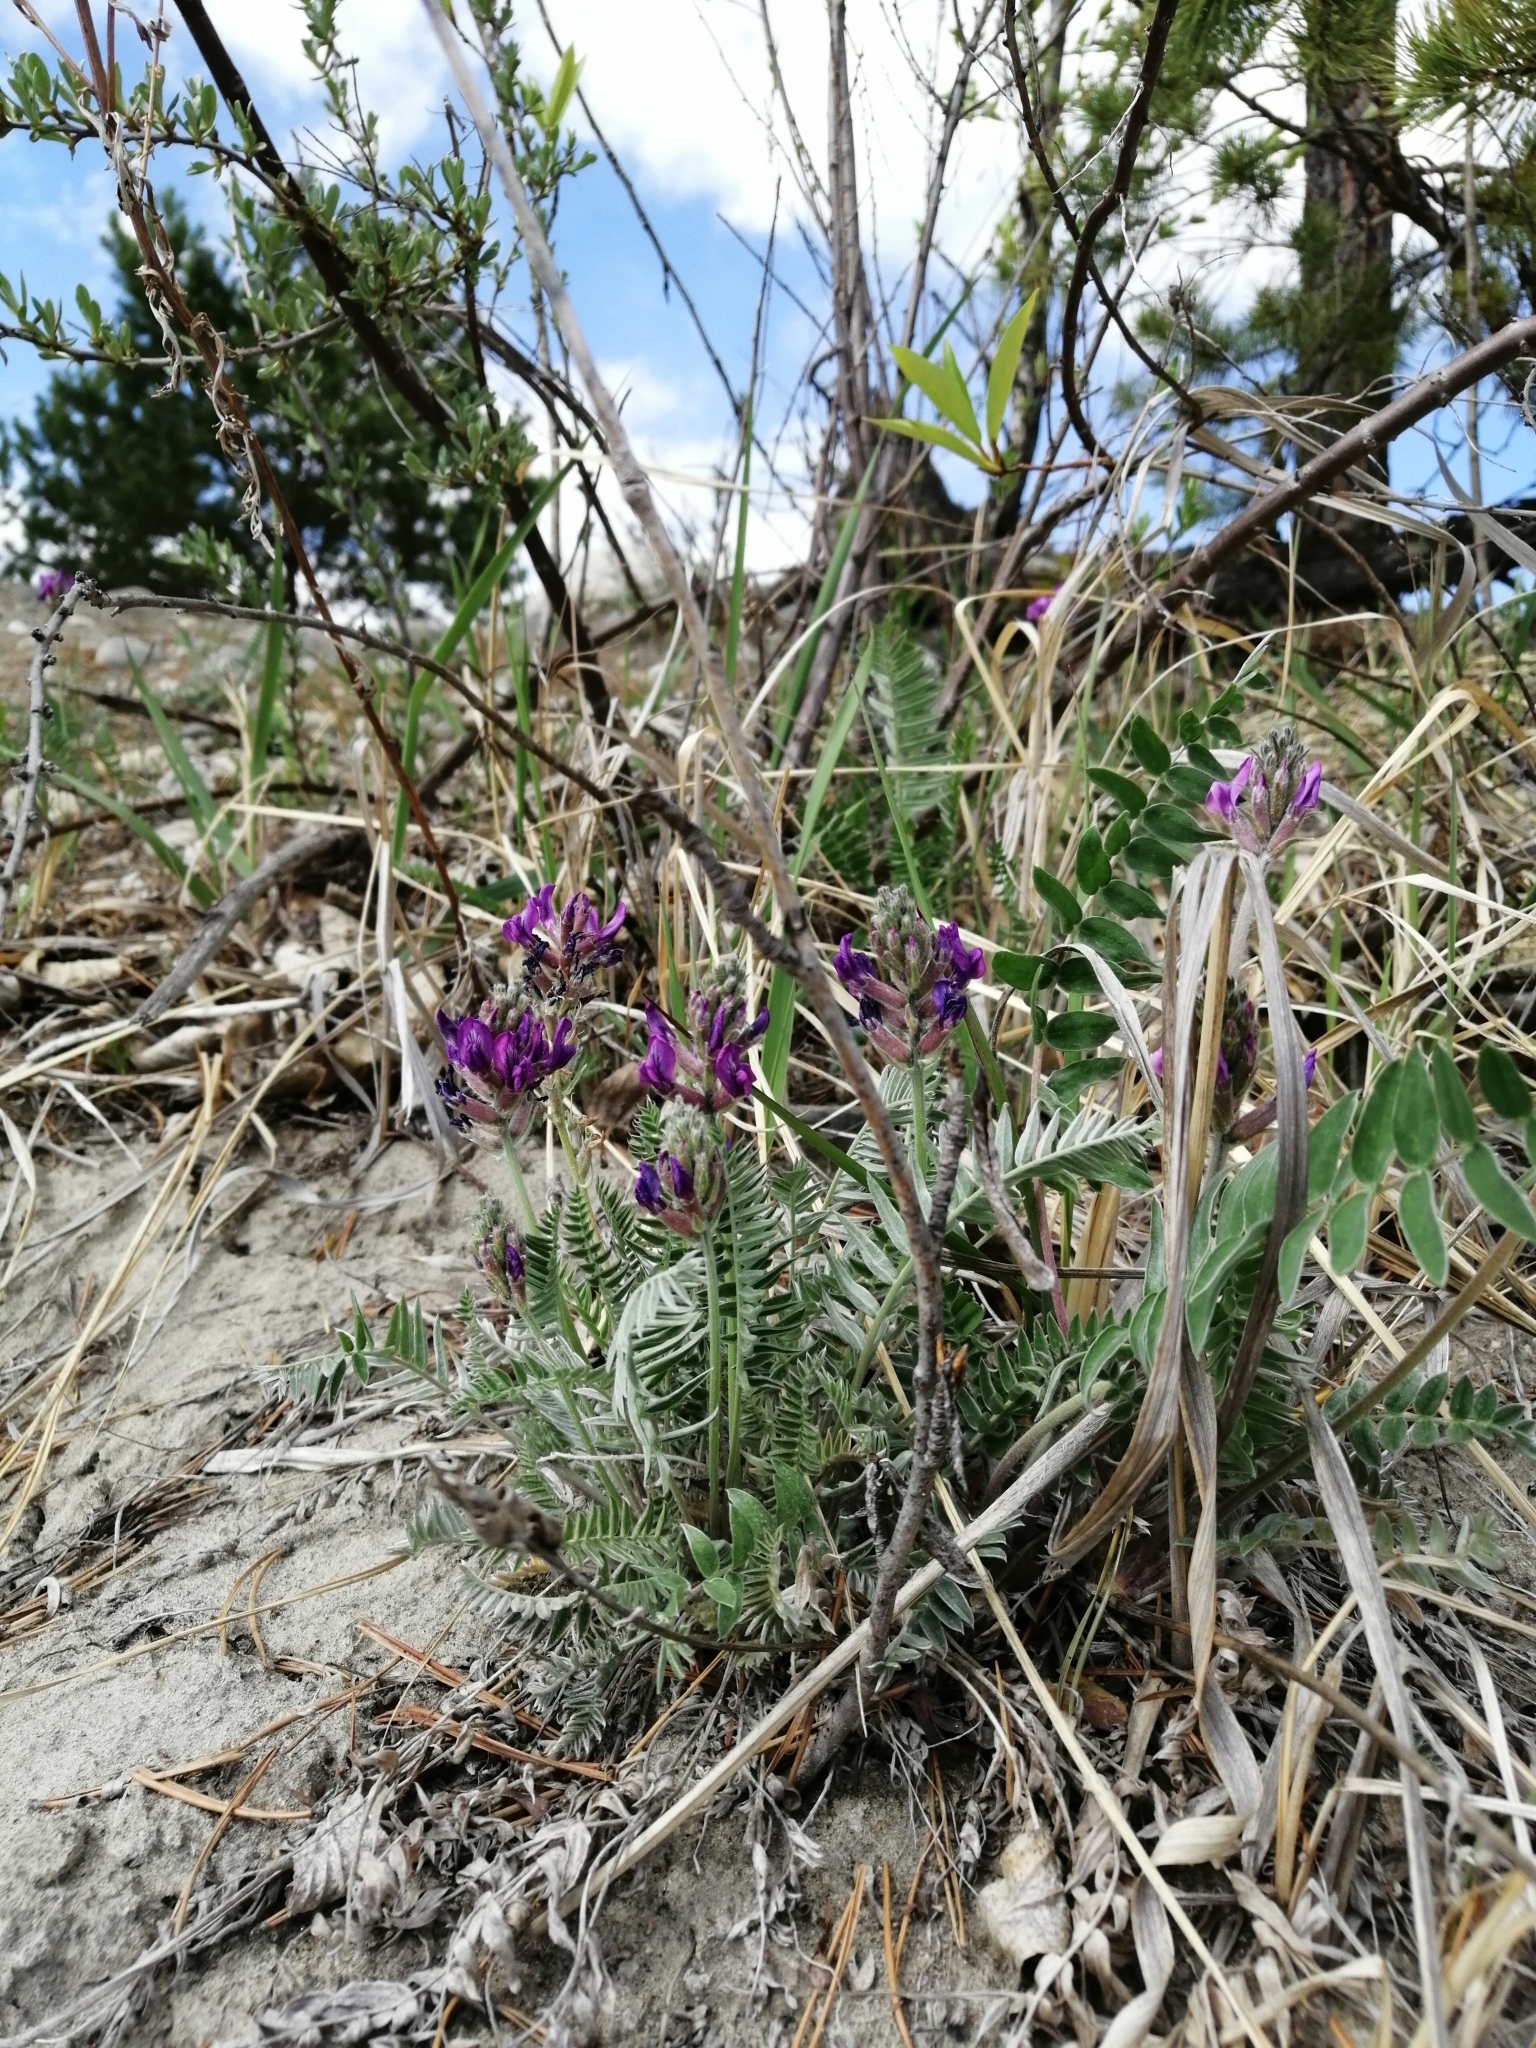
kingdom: Plantae
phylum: Tracheophyta
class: Magnoliopsida
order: Fabales
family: Fabaceae
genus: Oxytropis
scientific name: Oxytropis strobilacea
